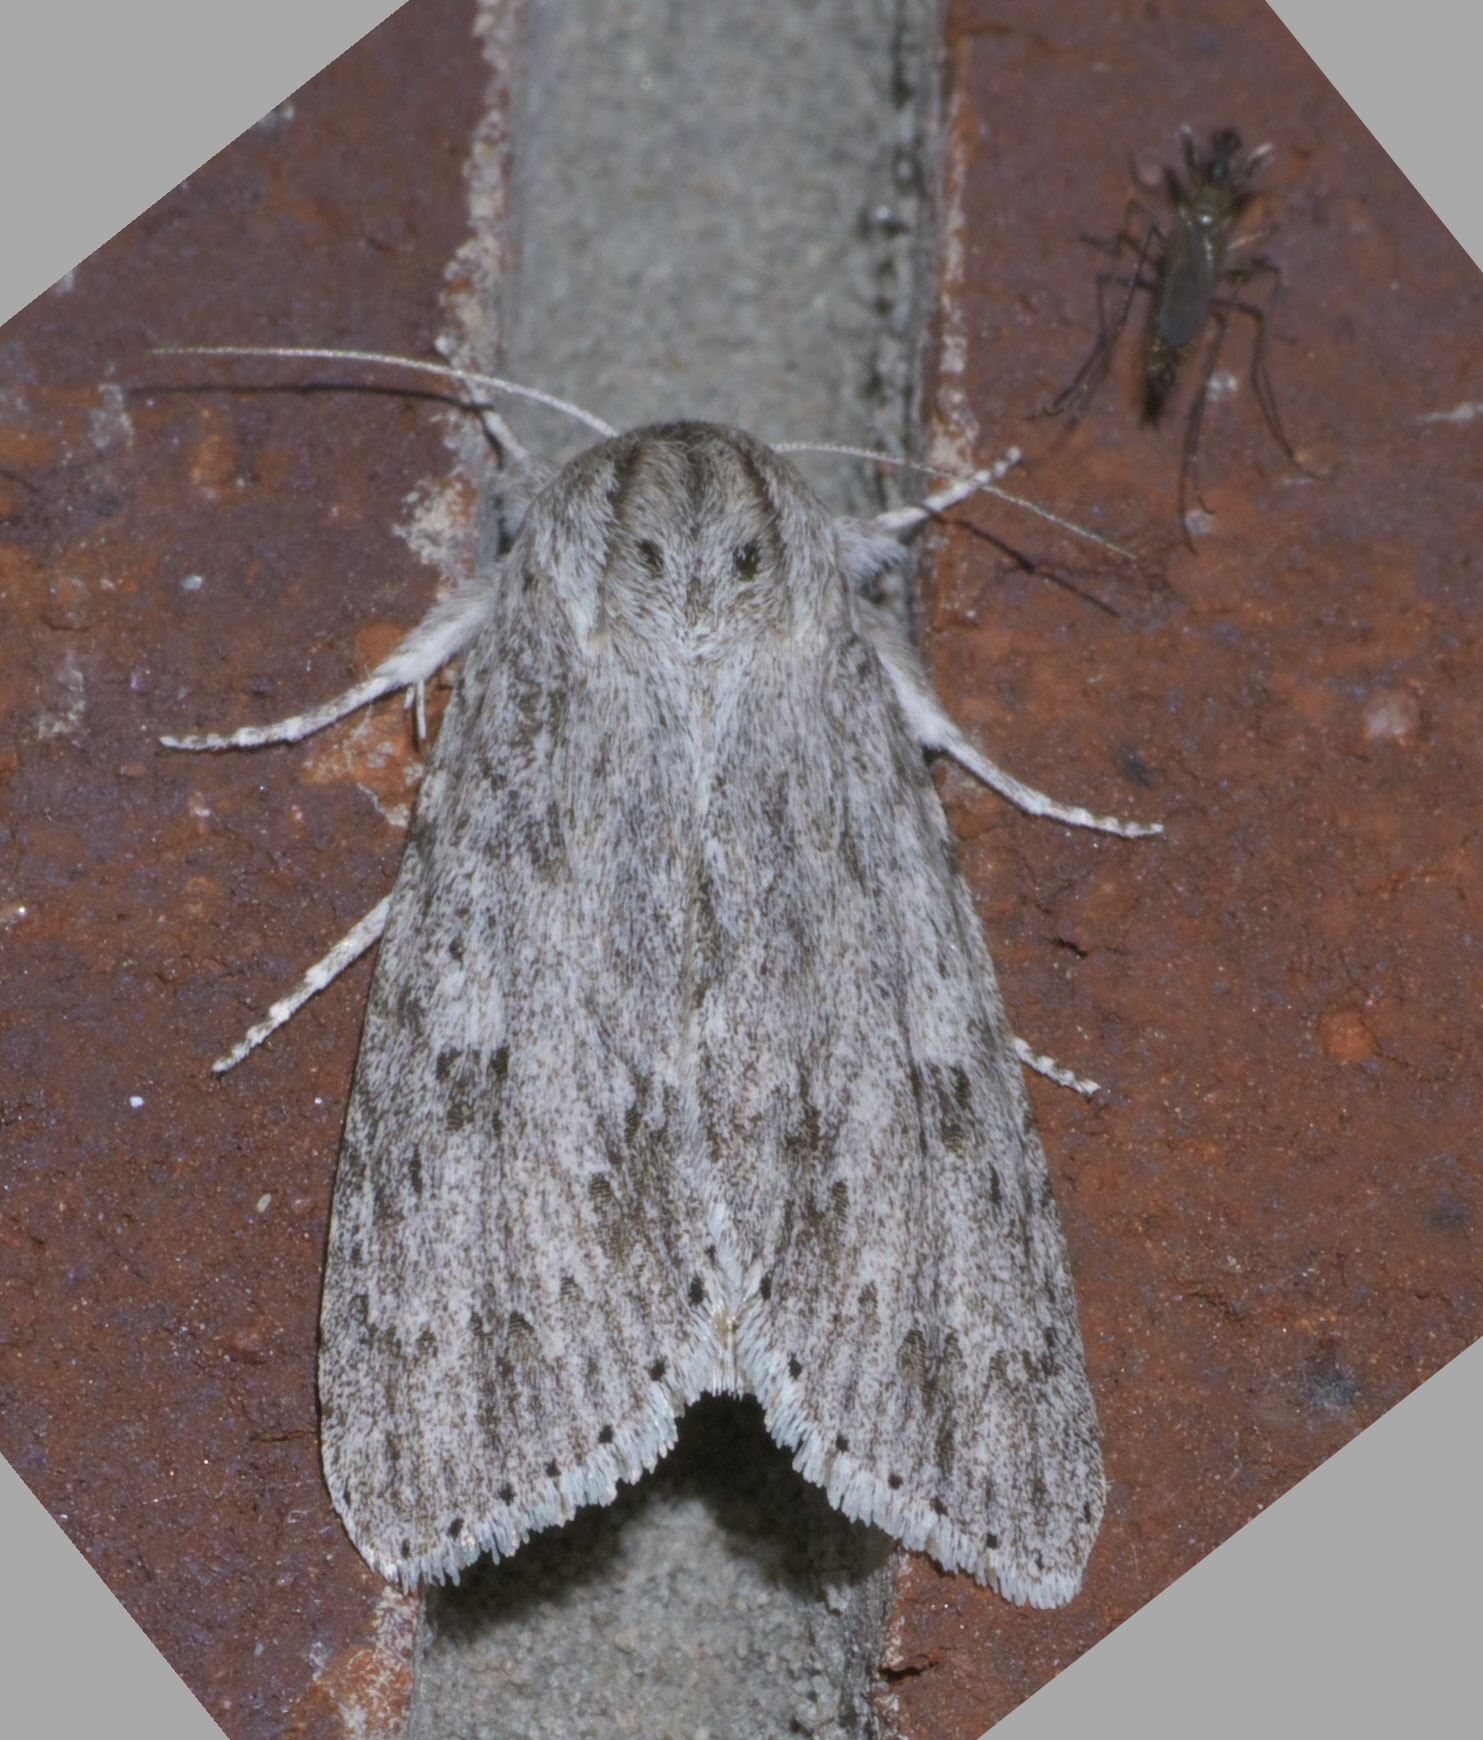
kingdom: Animalia
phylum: Arthropoda
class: Insecta
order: Lepidoptera
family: Noctuidae
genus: Acronicta
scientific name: Acronicta oblinita
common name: Smeared dagger
